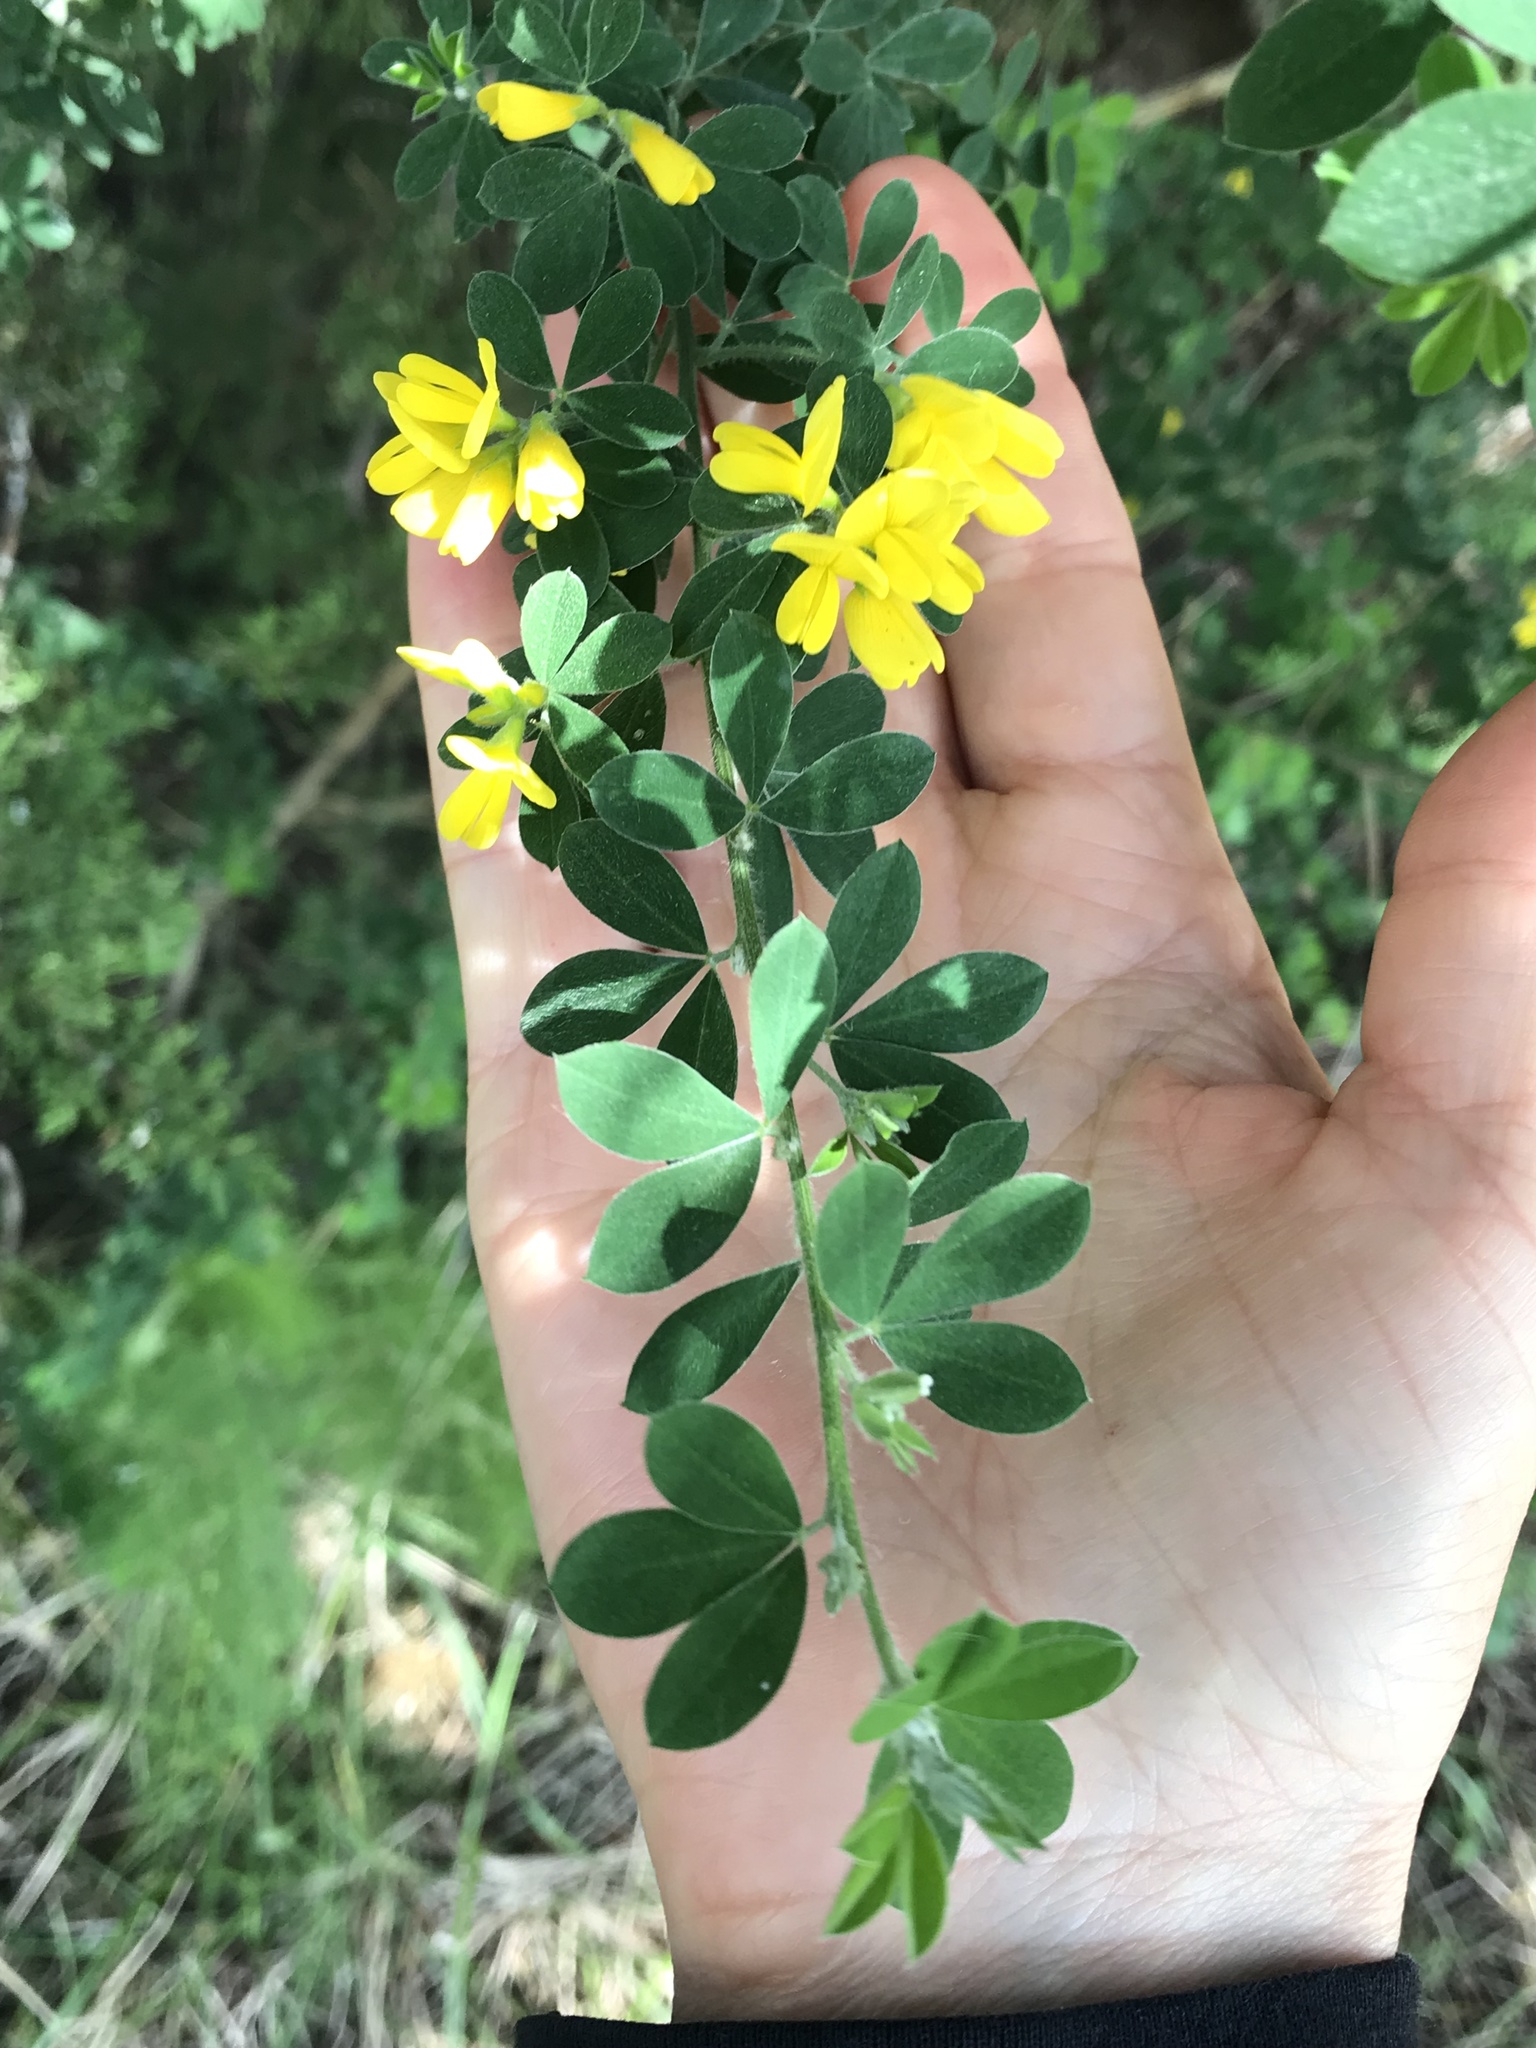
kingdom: Plantae
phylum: Tracheophyta
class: Magnoliopsida
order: Fabales
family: Fabaceae
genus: Genista
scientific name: Genista monspessulana
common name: Montpellier broom
